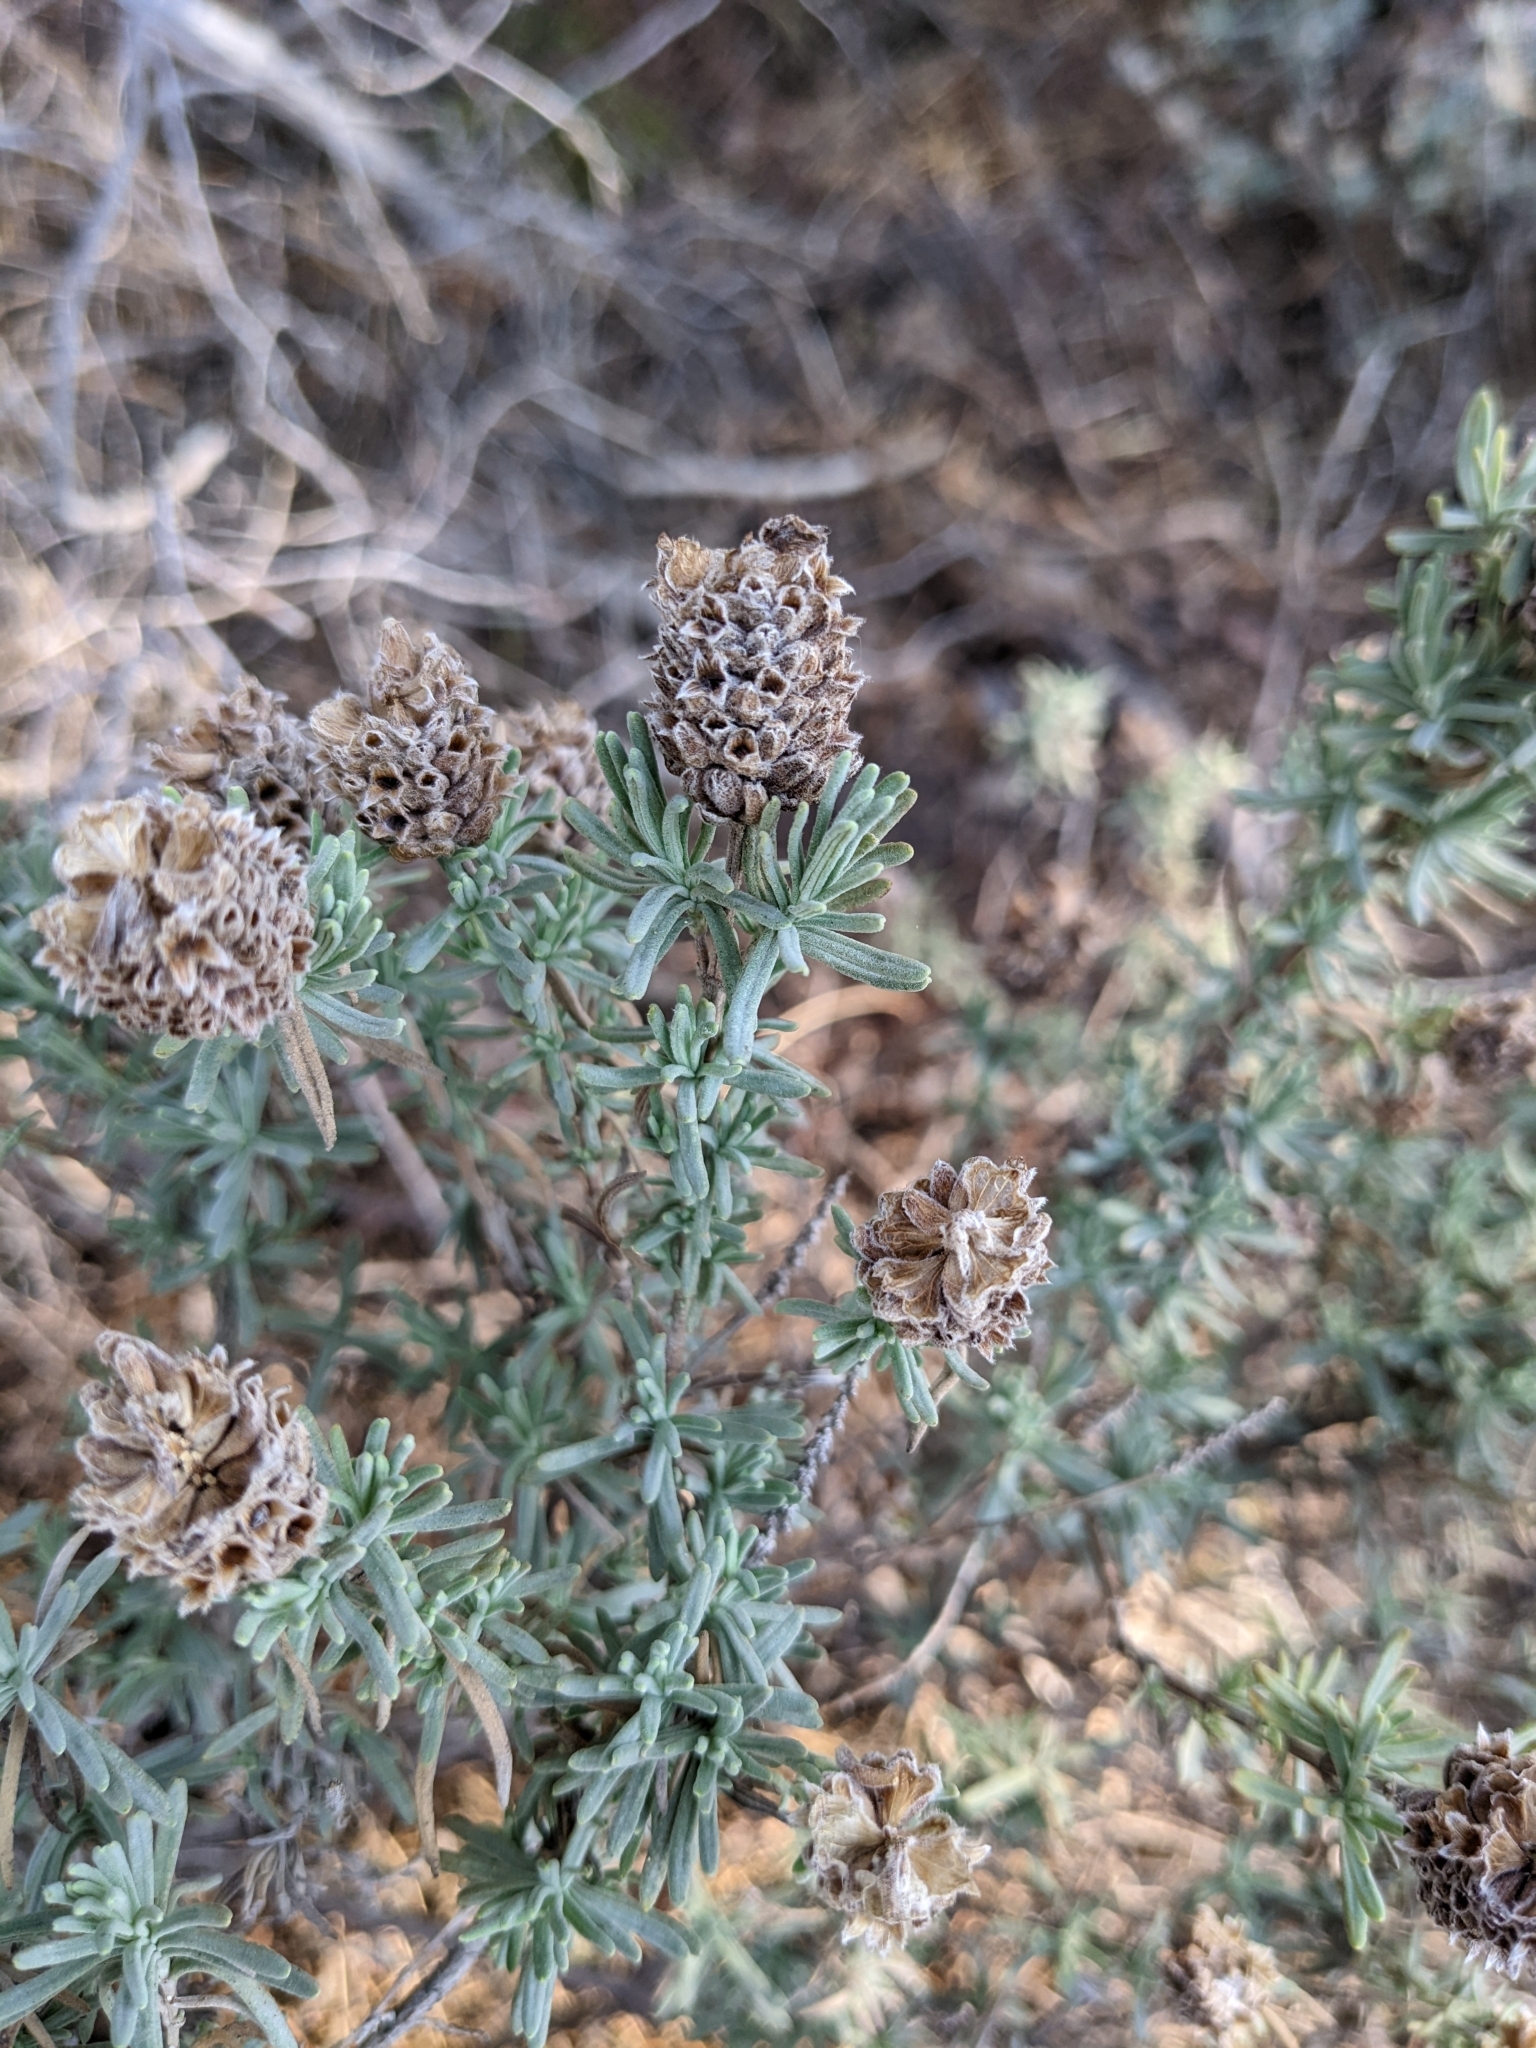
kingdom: Plantae
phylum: Tracheophyta
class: Magnoliopsida
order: Lamiales
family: Lamiaceae
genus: Lavandula
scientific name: Lavandula stoechas
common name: French lavender
